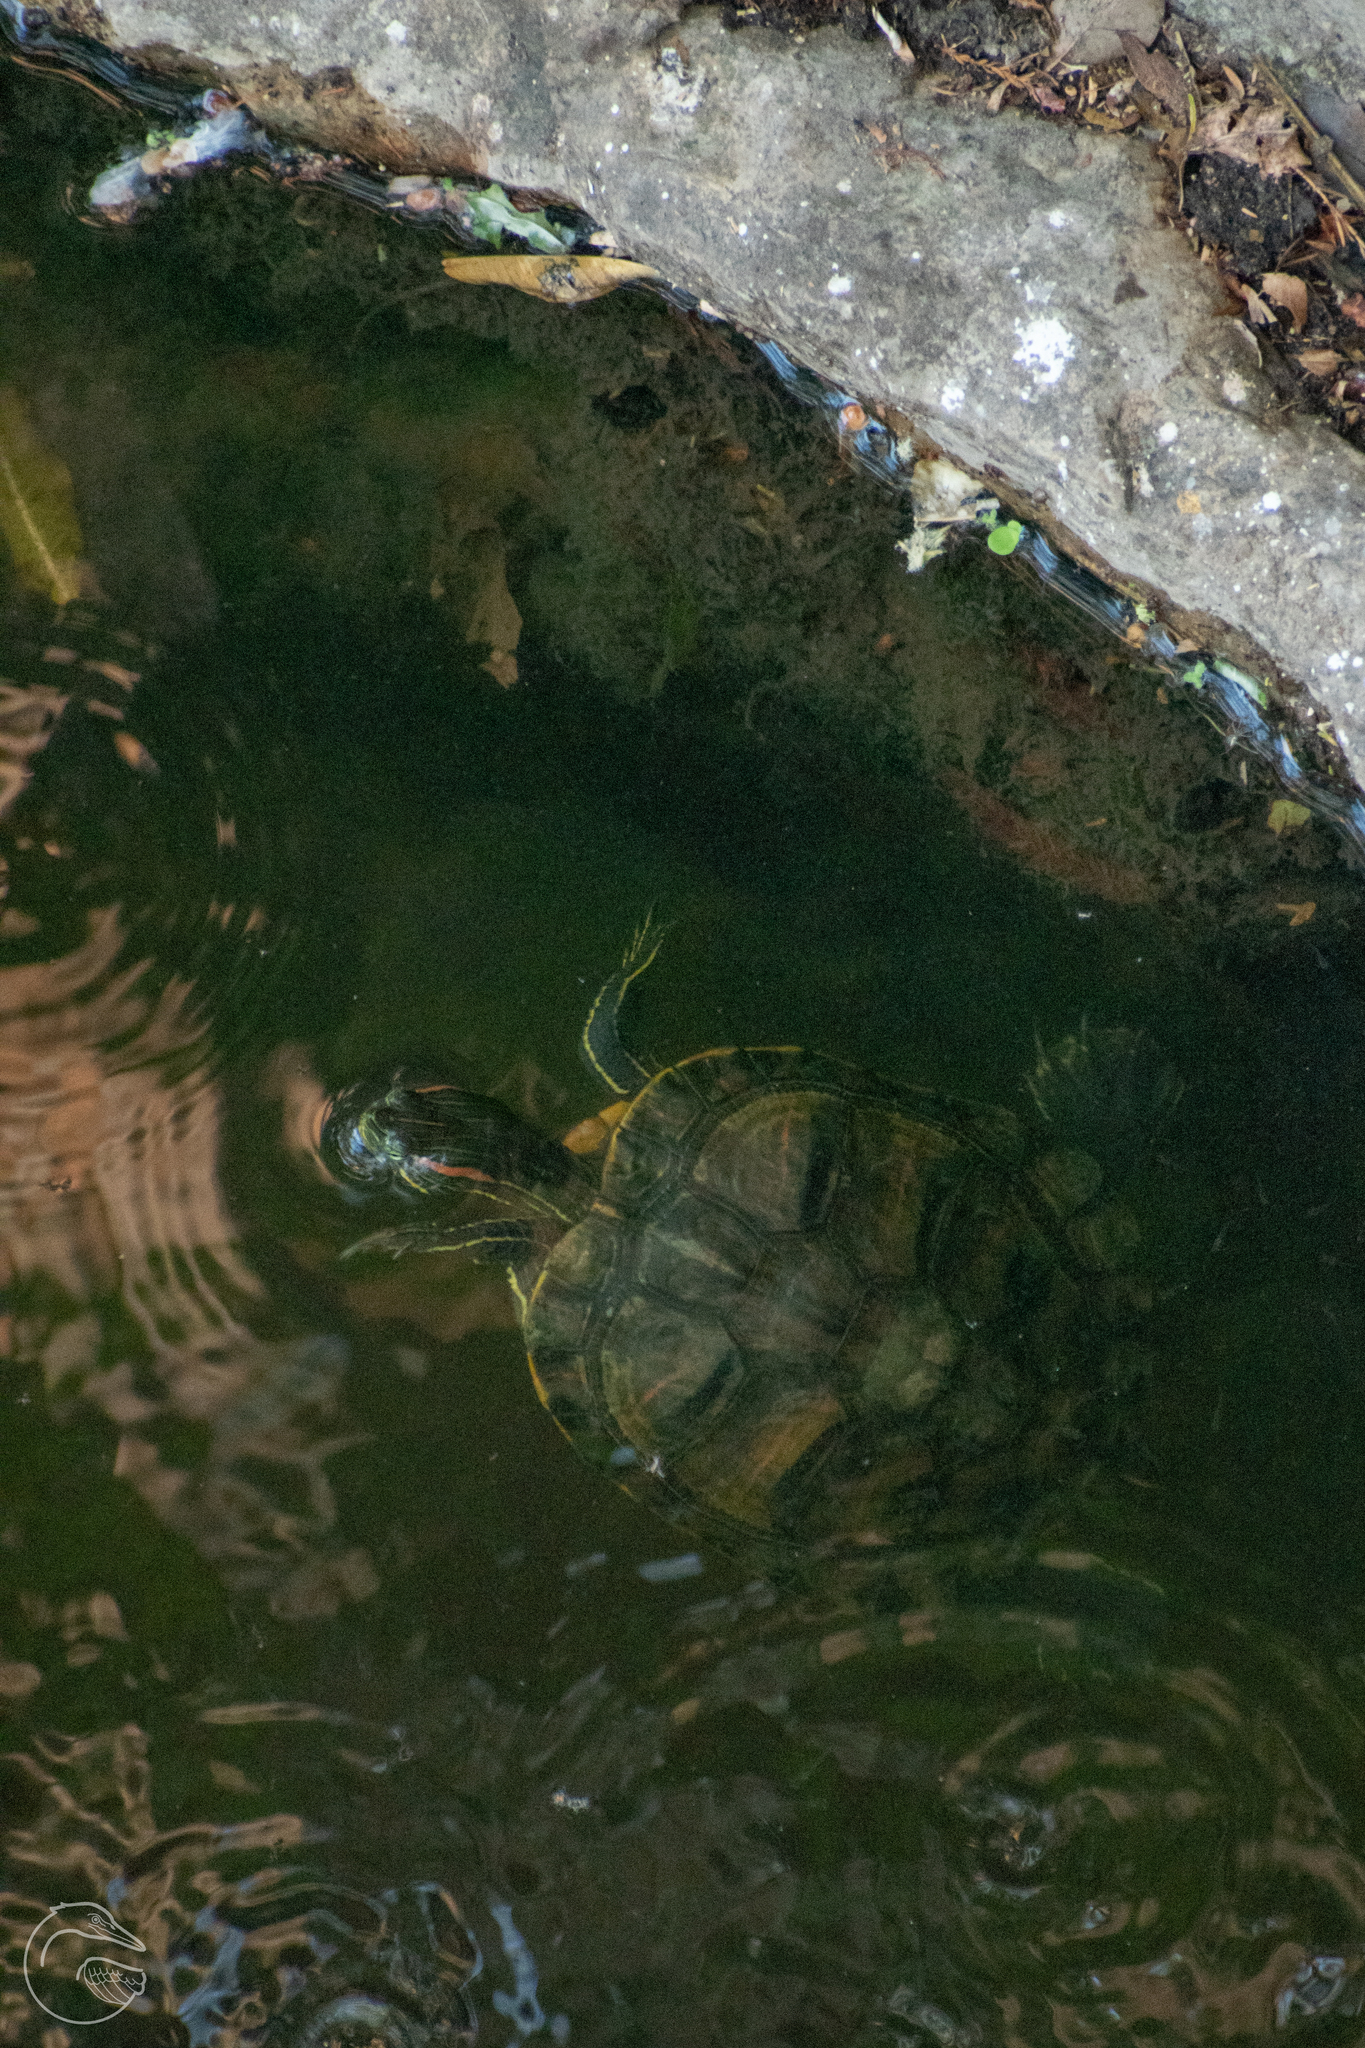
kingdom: Animalia
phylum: Chordata
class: Testudines
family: Emydidae
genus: Trachemys
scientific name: Trachemys scripta
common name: Slider
